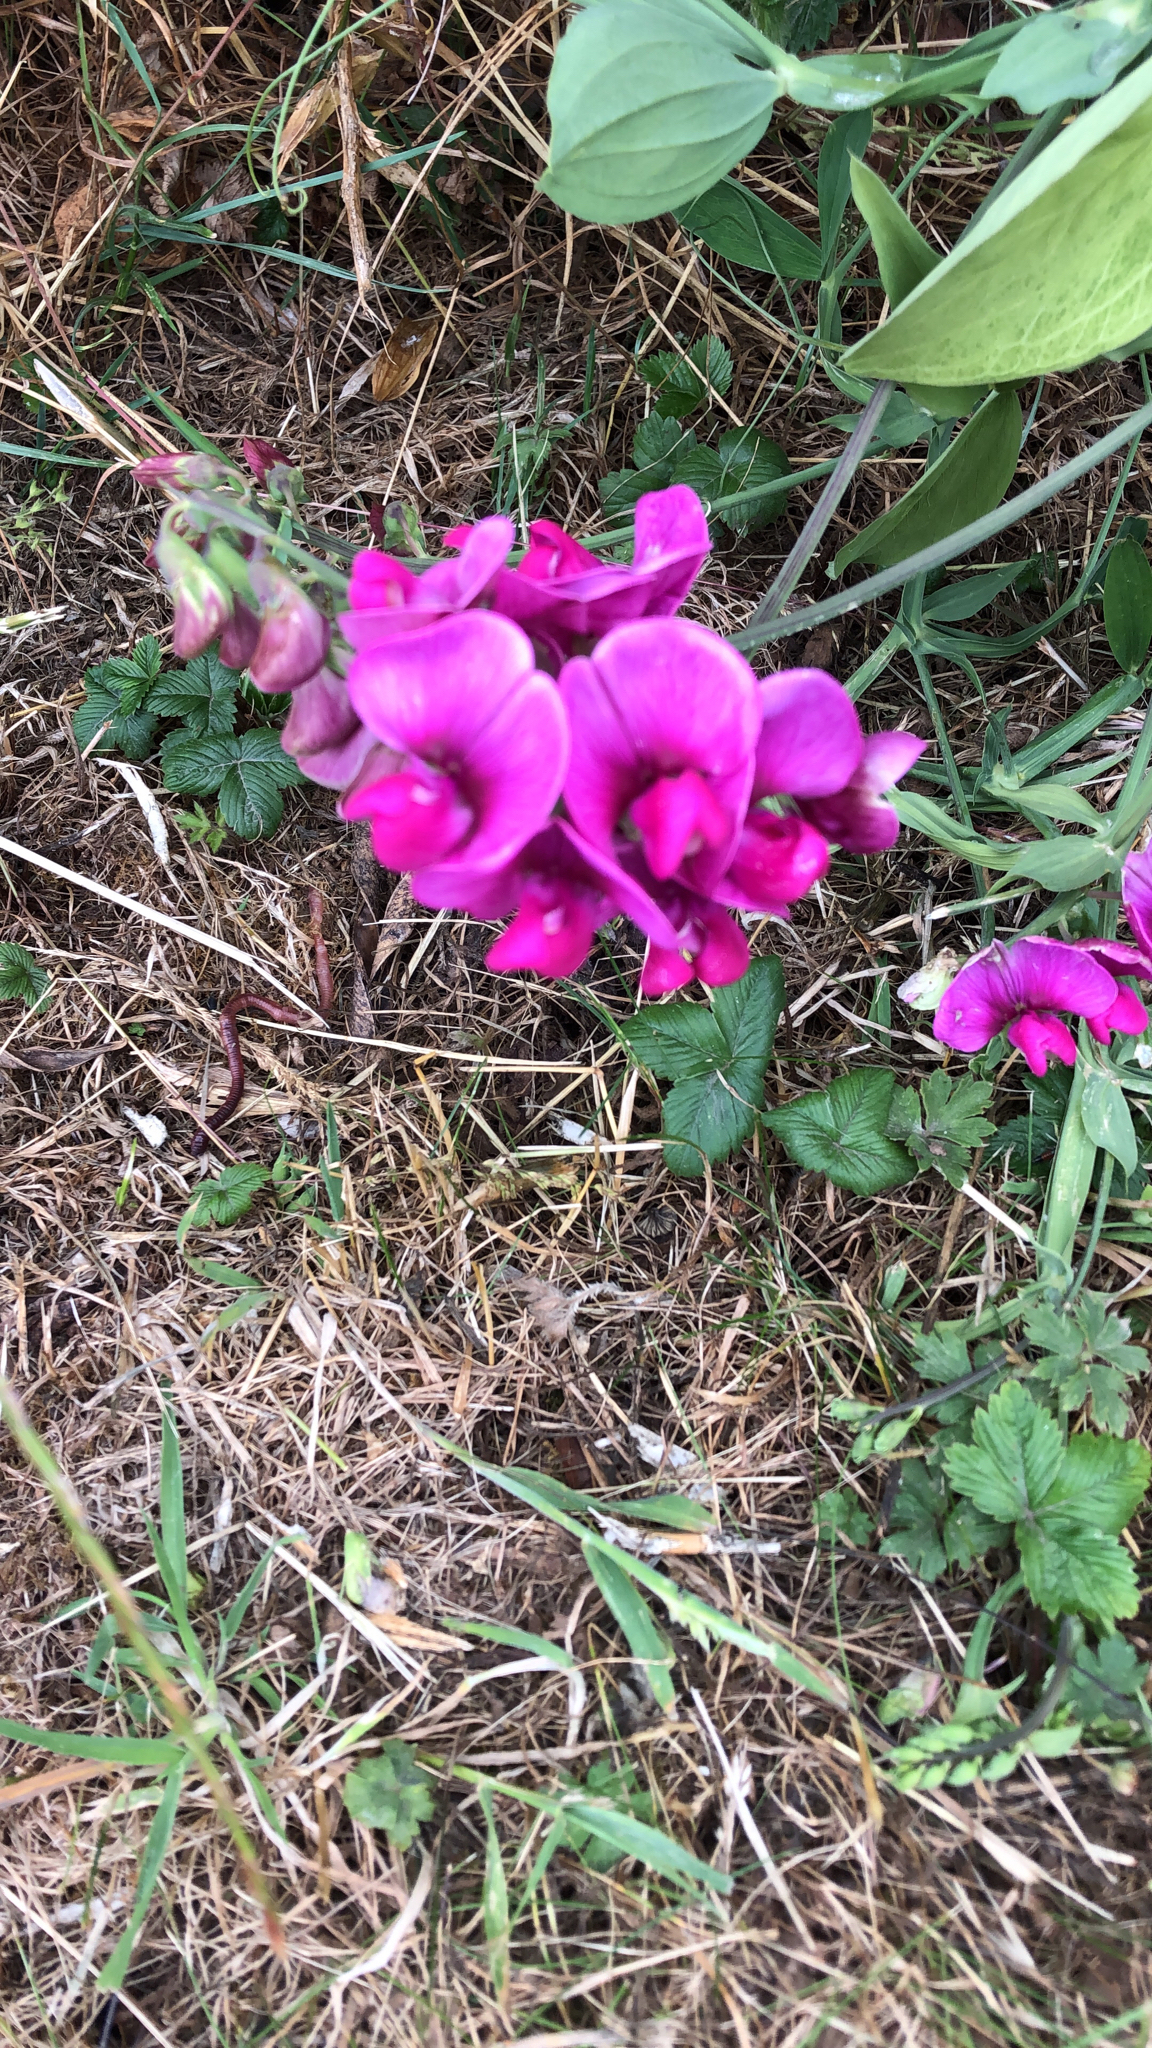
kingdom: Plantae
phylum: Tracheophyta
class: Magnoliopsida
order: Fabales
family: Fabaceae
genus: Lathyrus
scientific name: Lathyrus latifolius
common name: Perennial pea
